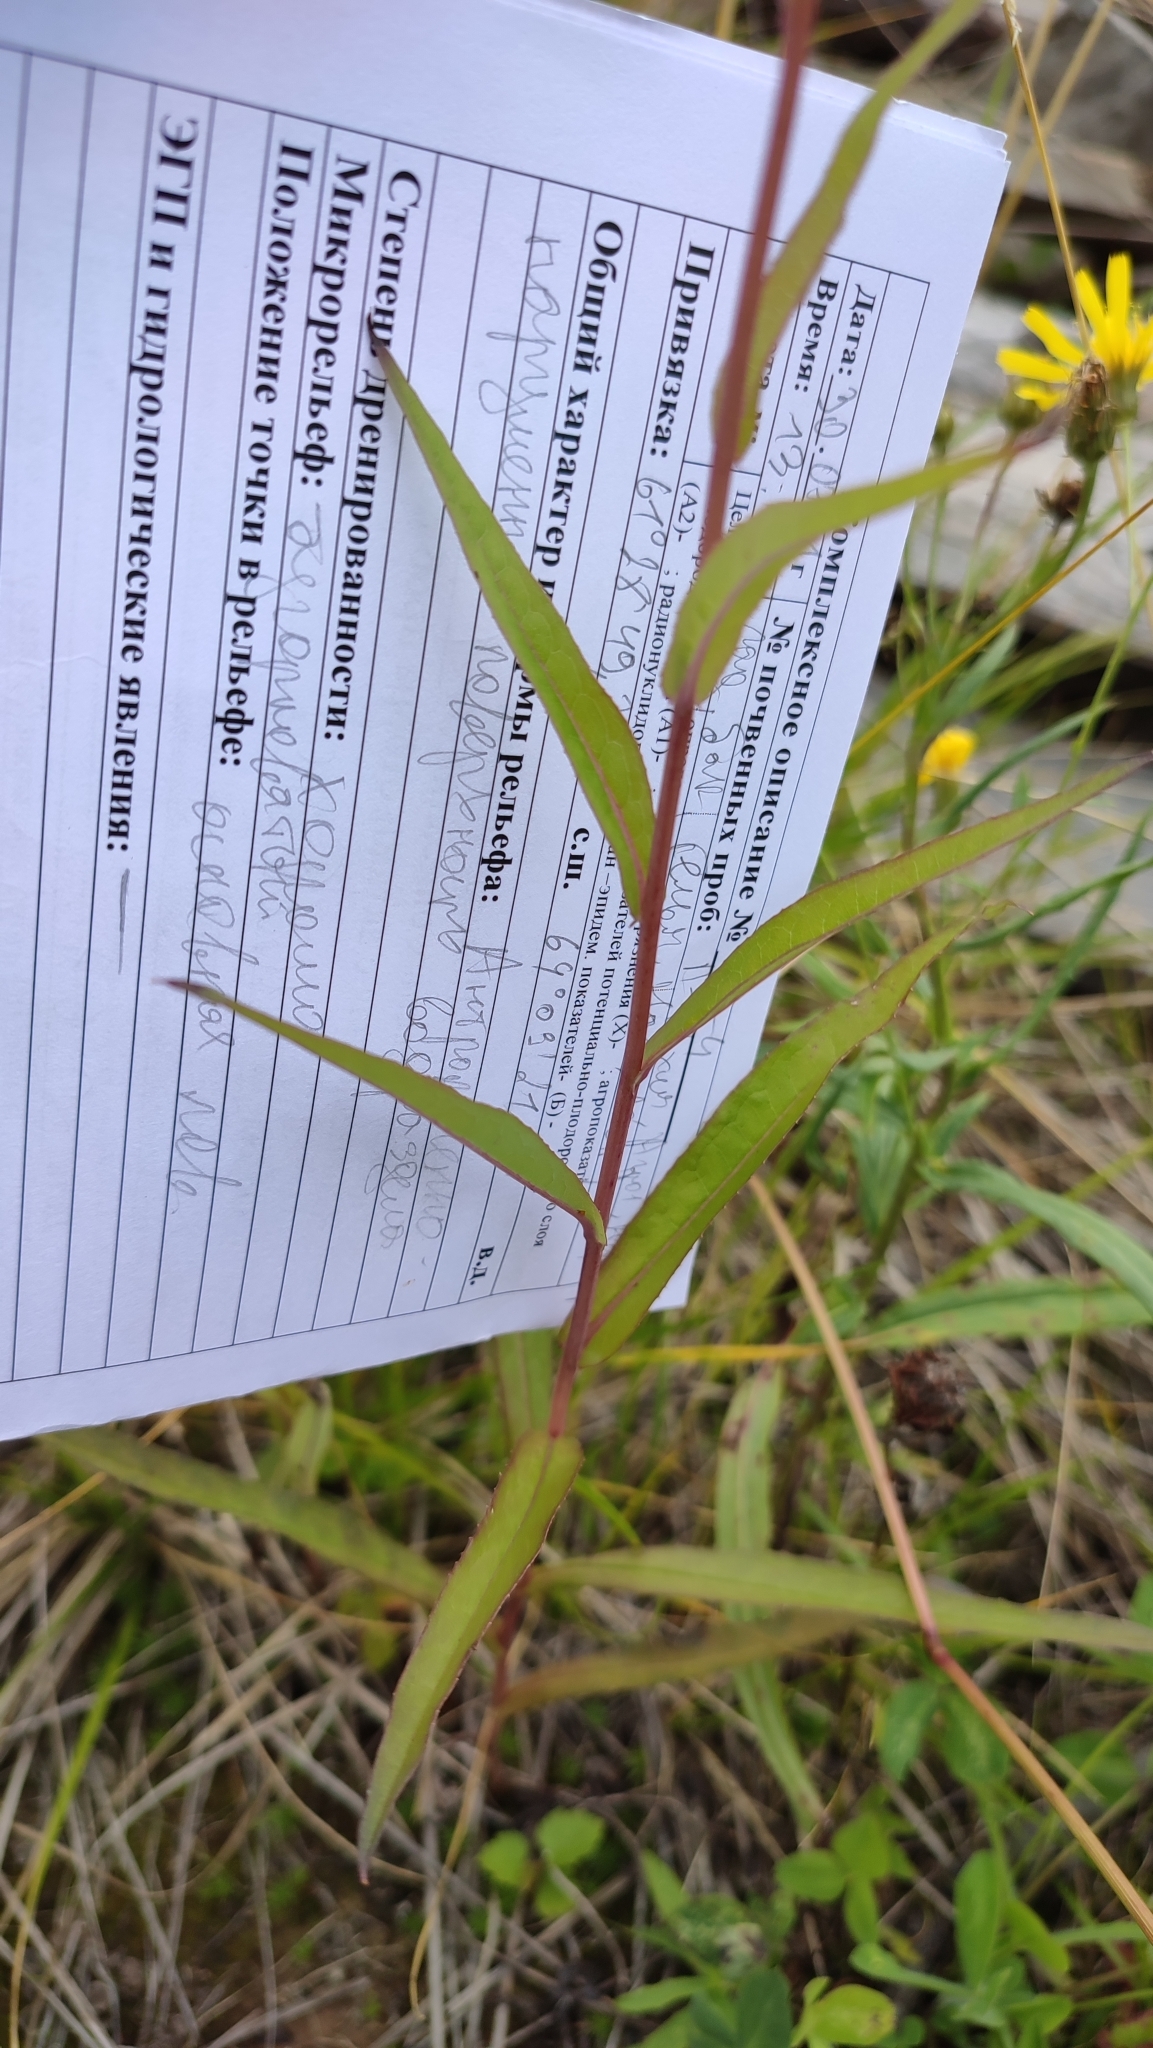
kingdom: Plantae
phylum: Tracheophyta
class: Magnoliopsida
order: Asterales
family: Asteraceae
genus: Lactuca
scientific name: Lactuca sibirica
